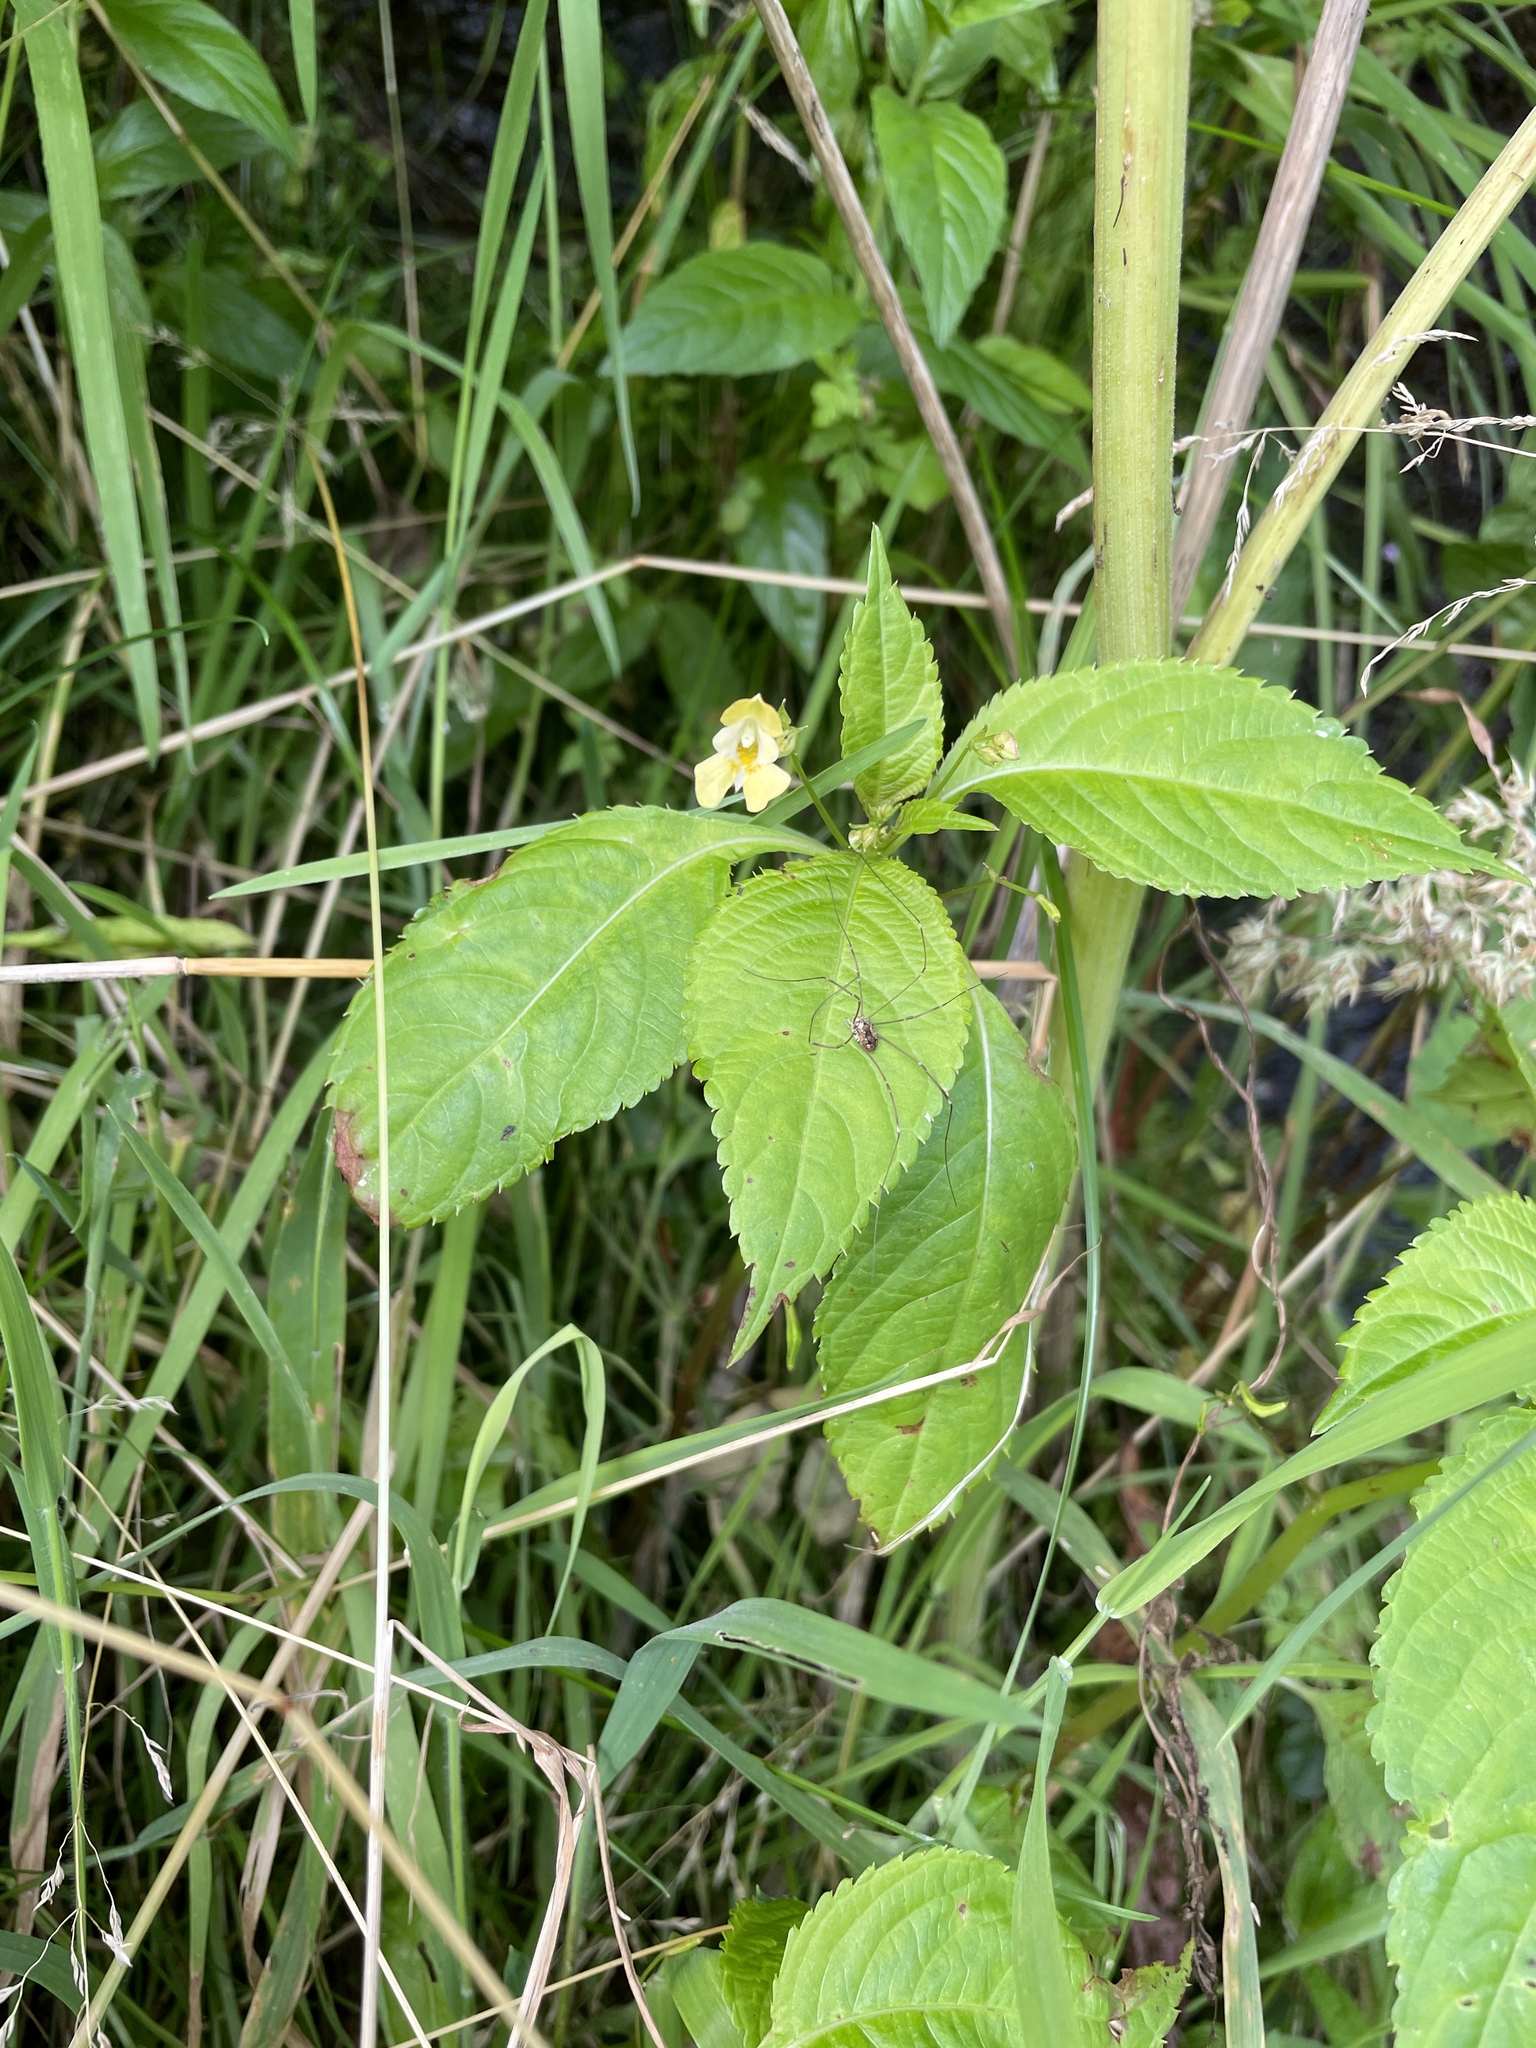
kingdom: Plantae
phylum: Tracheophyta
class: Magnoliopsida
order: Ericales
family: Balsaminaceae
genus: Impatiens
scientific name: Impatiens parviflora
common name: Small balsam
